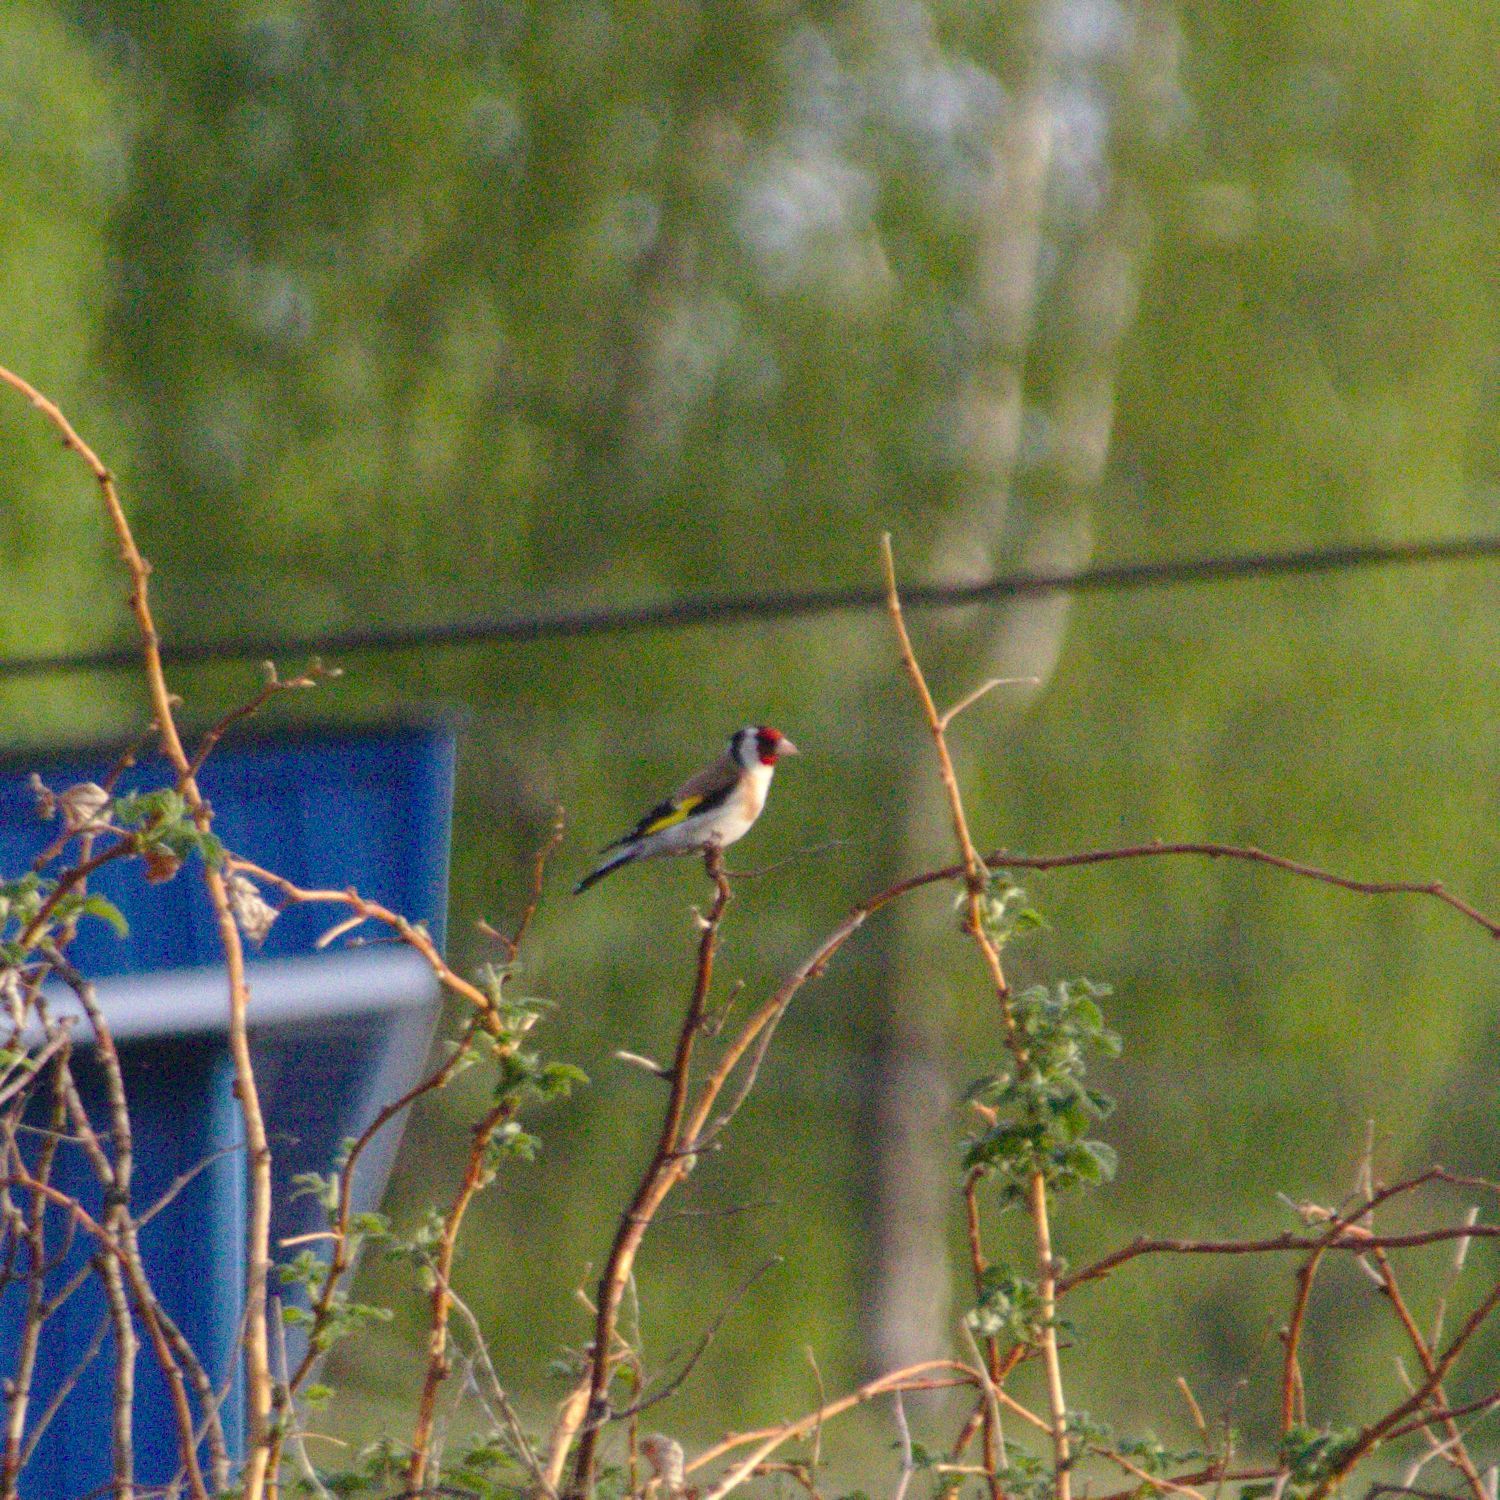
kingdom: Animalia
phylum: Chordata
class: Aves
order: Passeriformes
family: Fringillidae
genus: Carduelis
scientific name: Carduelis carduelis
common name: European goldfinch
